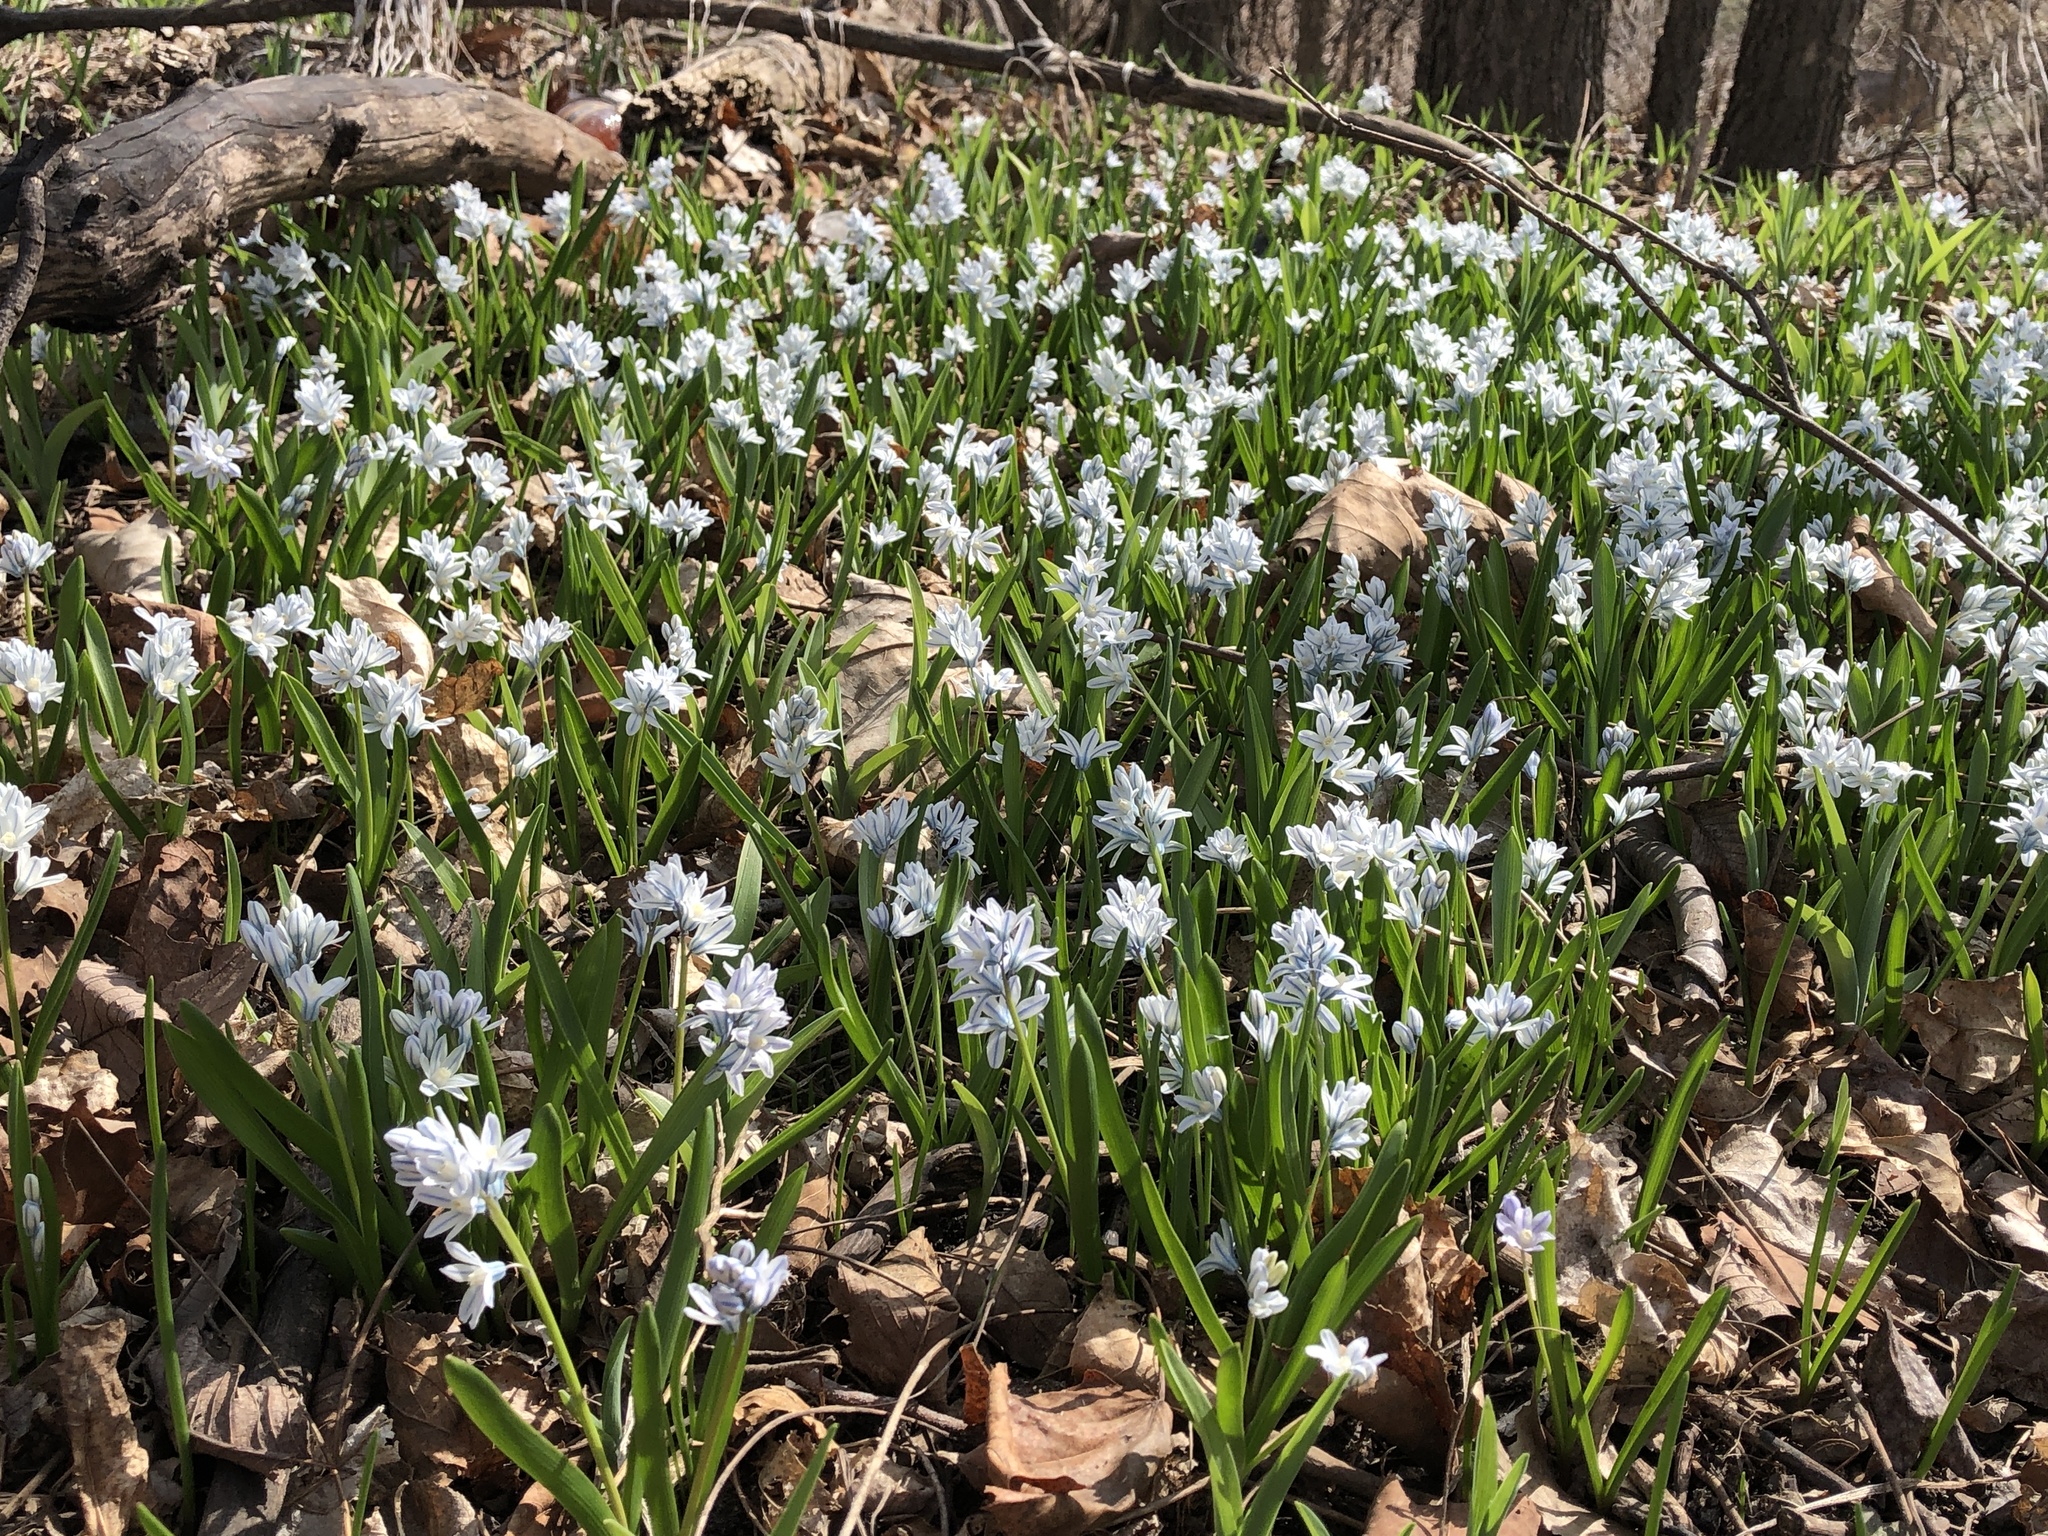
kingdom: Plantae
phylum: Tracheophyta
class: Liliopsida
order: Asparagales
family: Asparagaceae
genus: Puschkinia
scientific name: Puschkinia scilloides
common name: Striped squill
